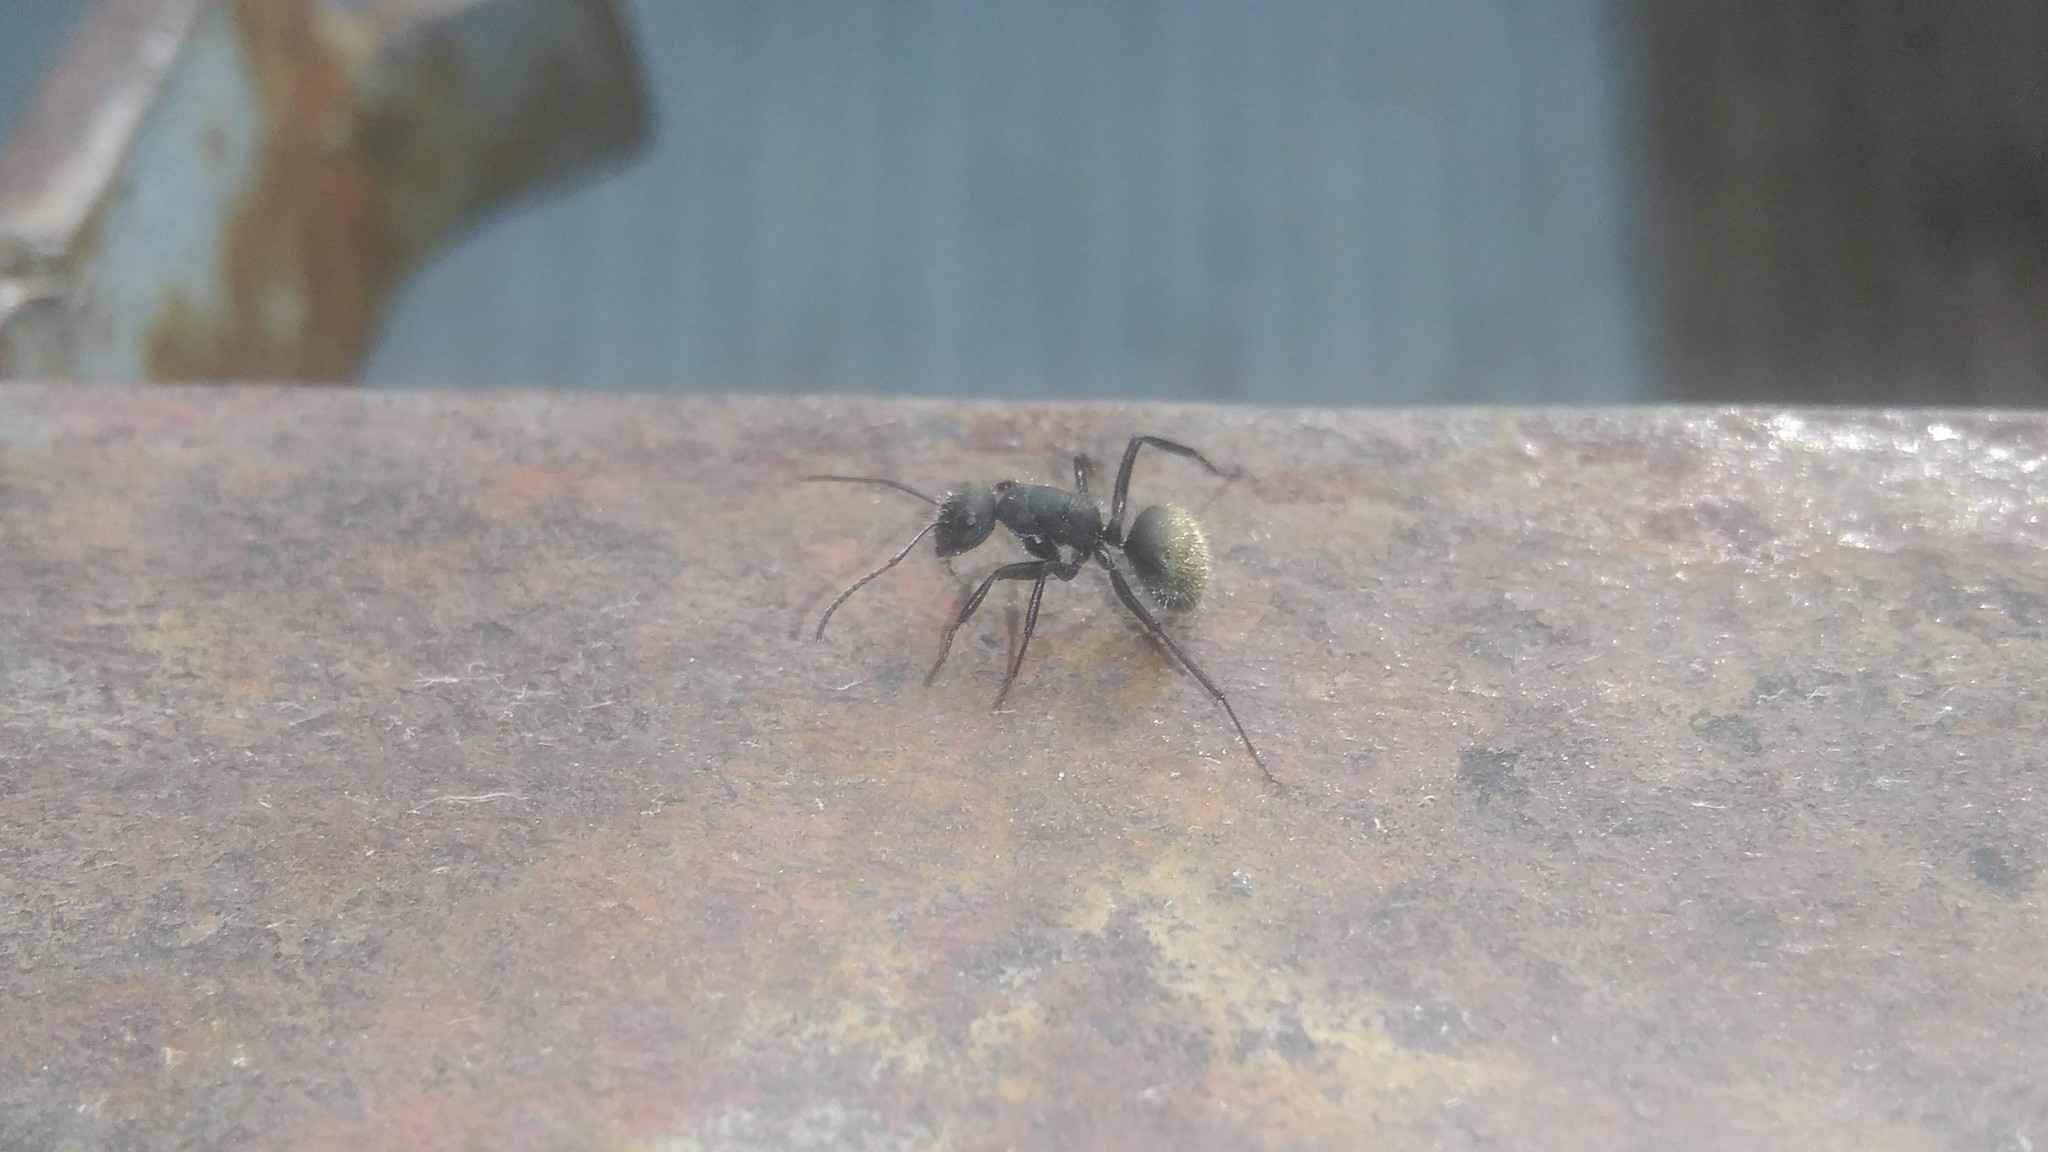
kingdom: Animalia
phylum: Arthropoda
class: Insecta
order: Hymenoptera
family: Formicidae
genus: Camponotus
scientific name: Camponotus mus
